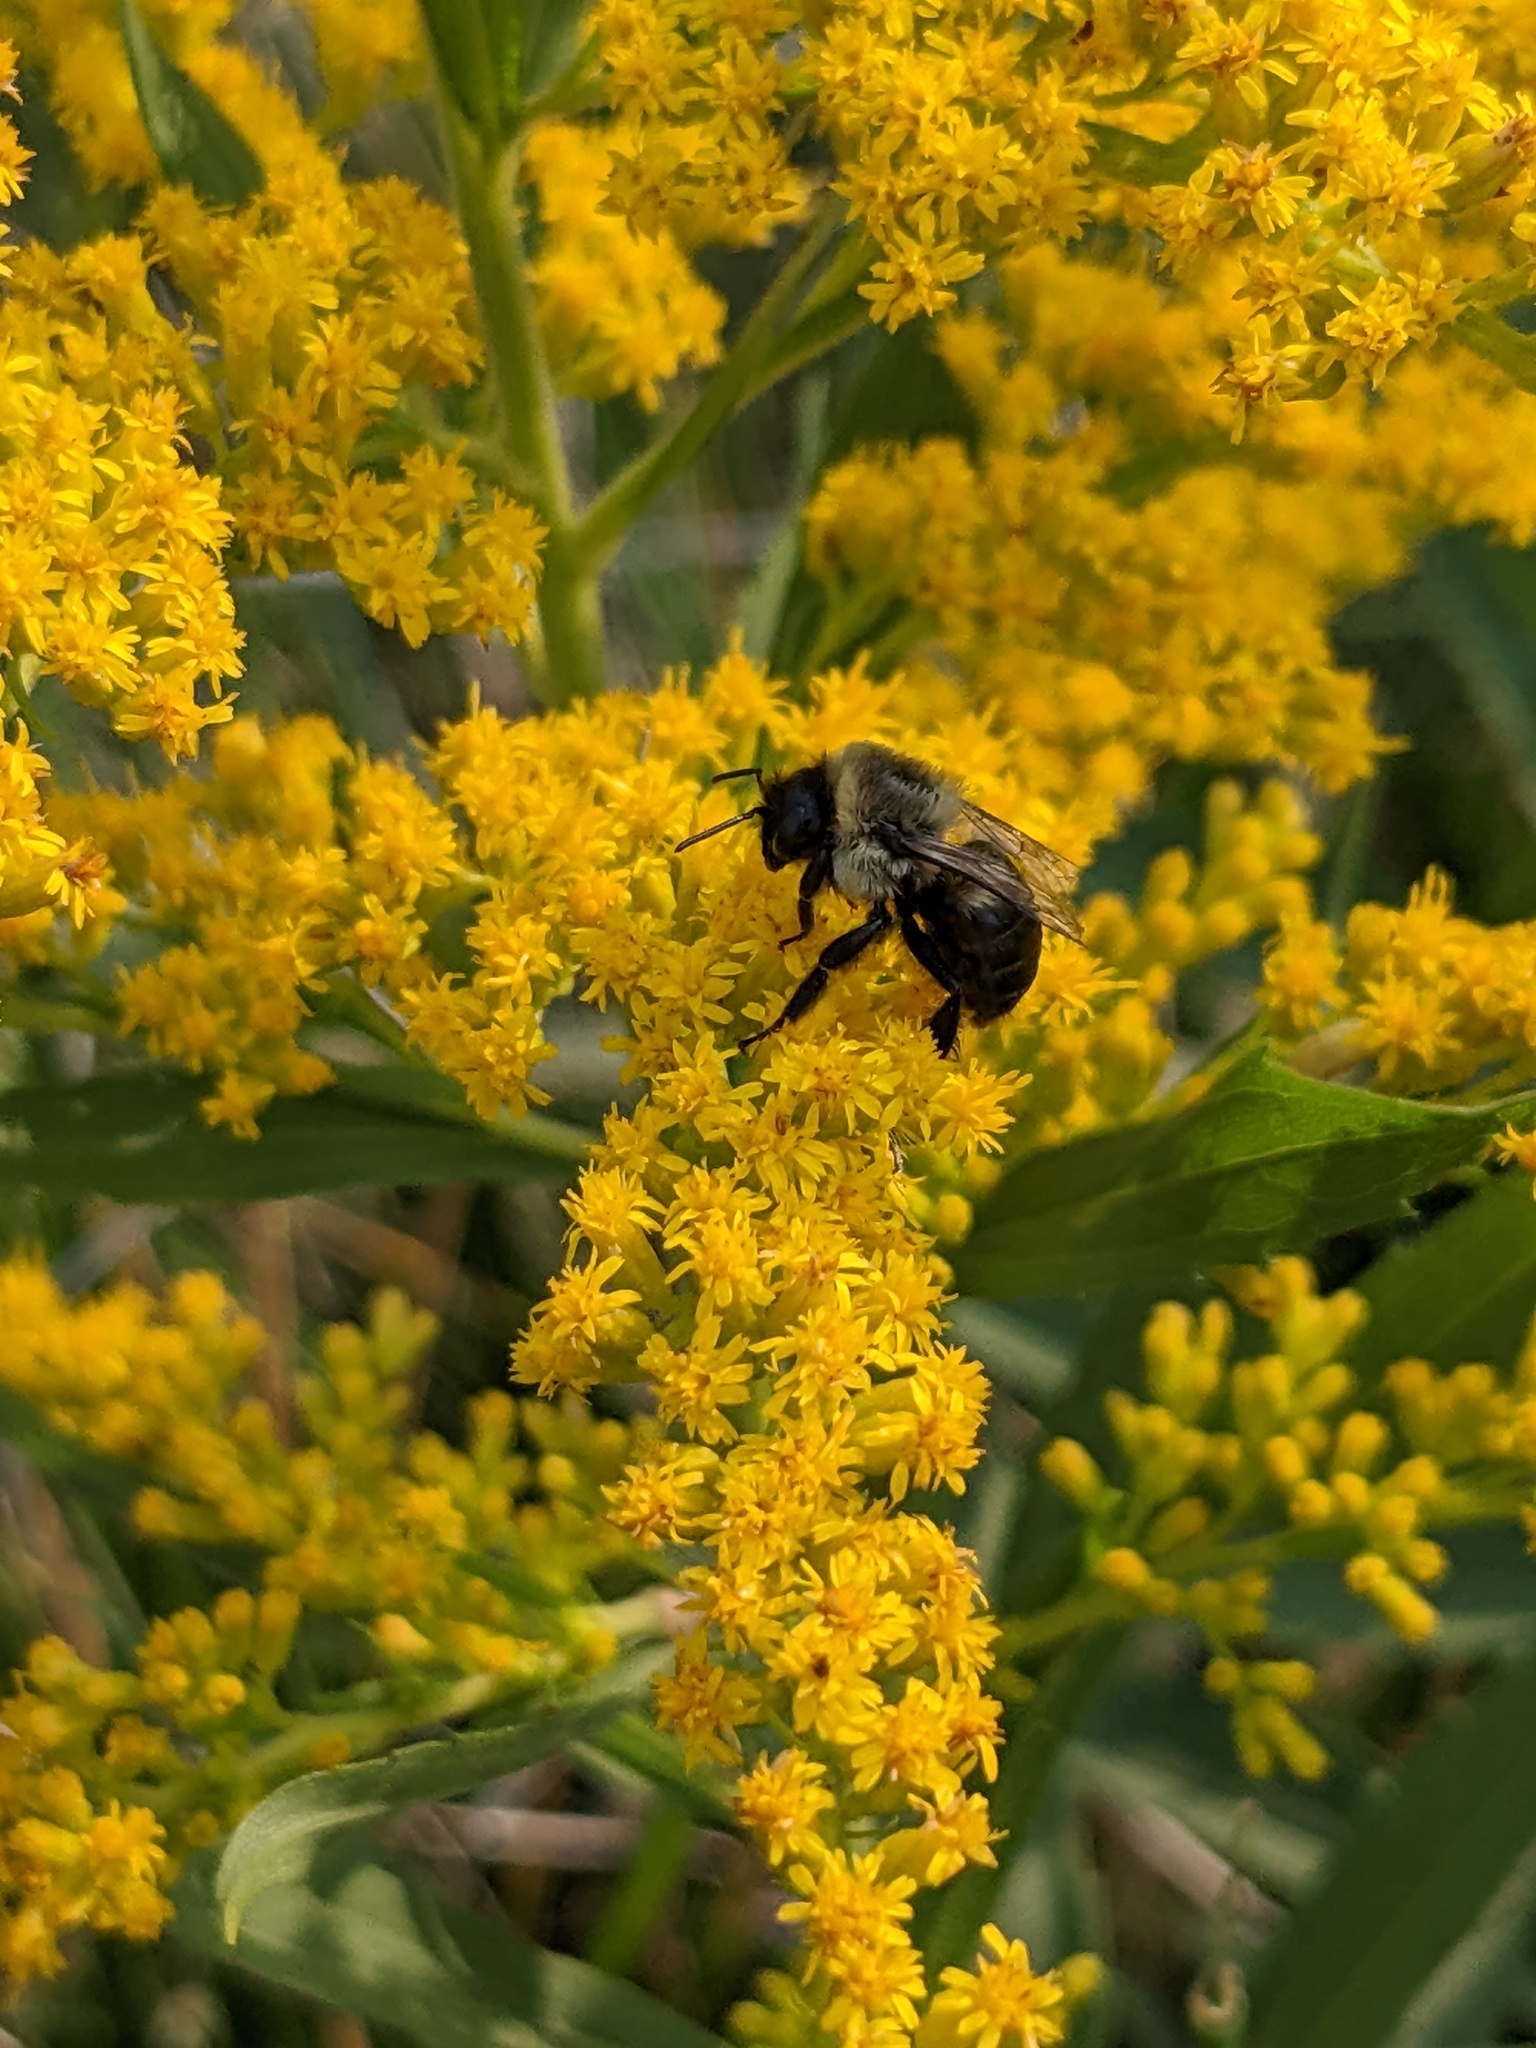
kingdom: Animalia
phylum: Arthropoda
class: Insecta
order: Hymenoptera
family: Apidae
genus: Bombus
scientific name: Bombus impatiens
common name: Common eastern bumble bee
